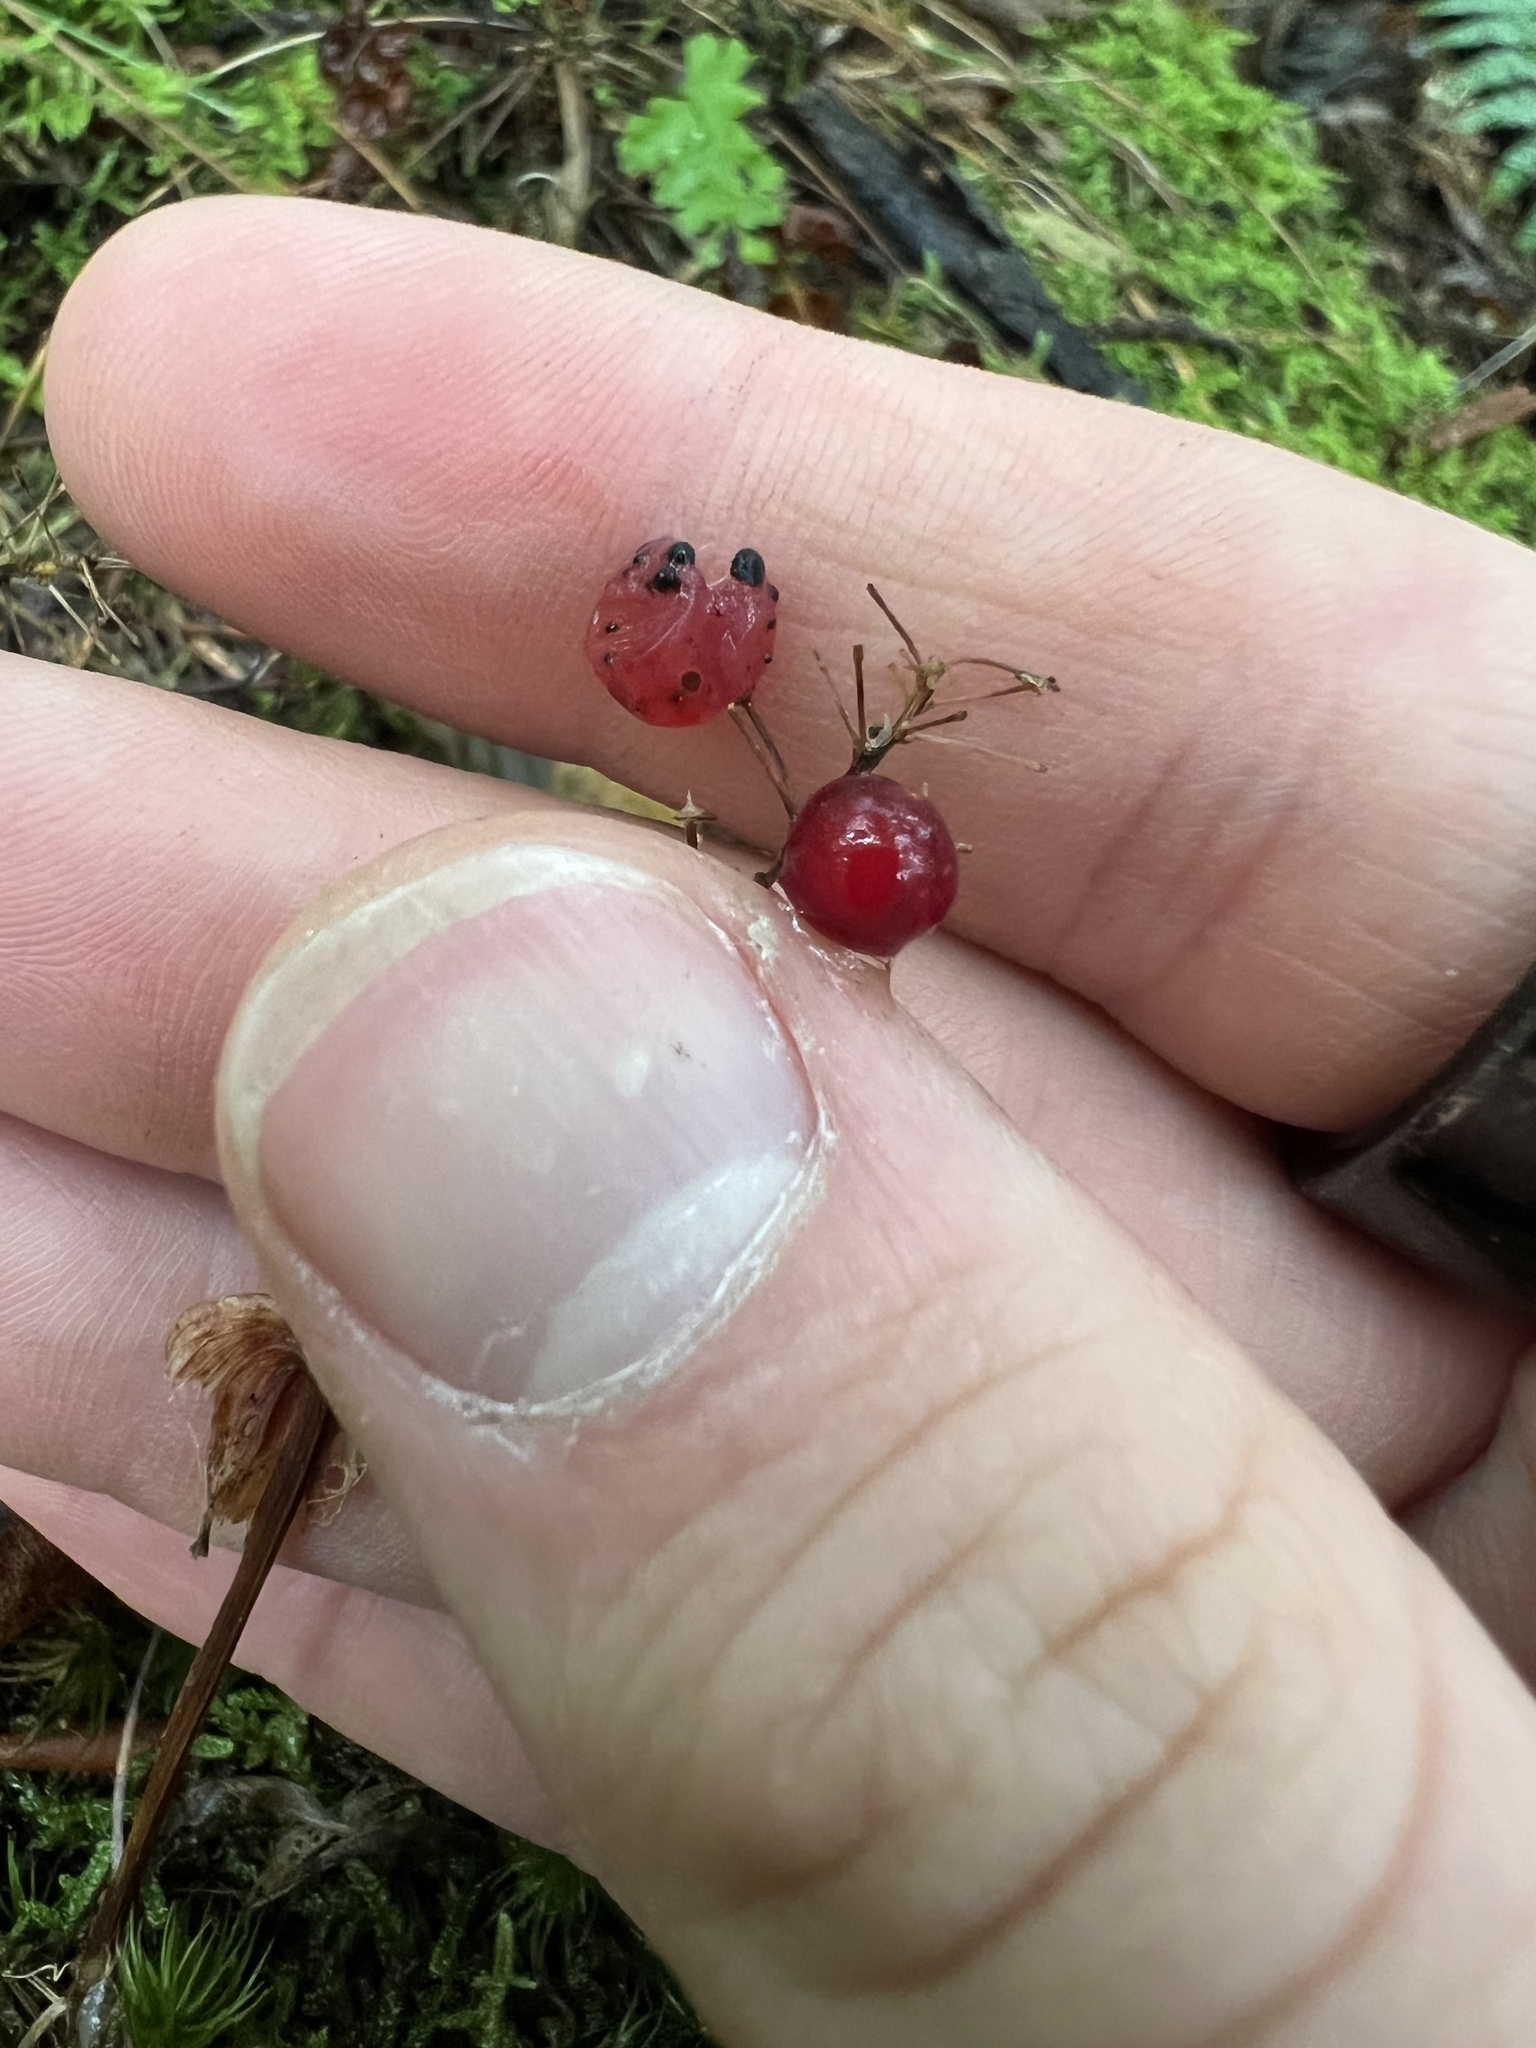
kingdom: Plantae
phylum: Tracheophyta
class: Liliopsida
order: Asparagales
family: Asparagaceae
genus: Maianthemum
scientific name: Maianthemum canadense
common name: False lily-of-the-valley
